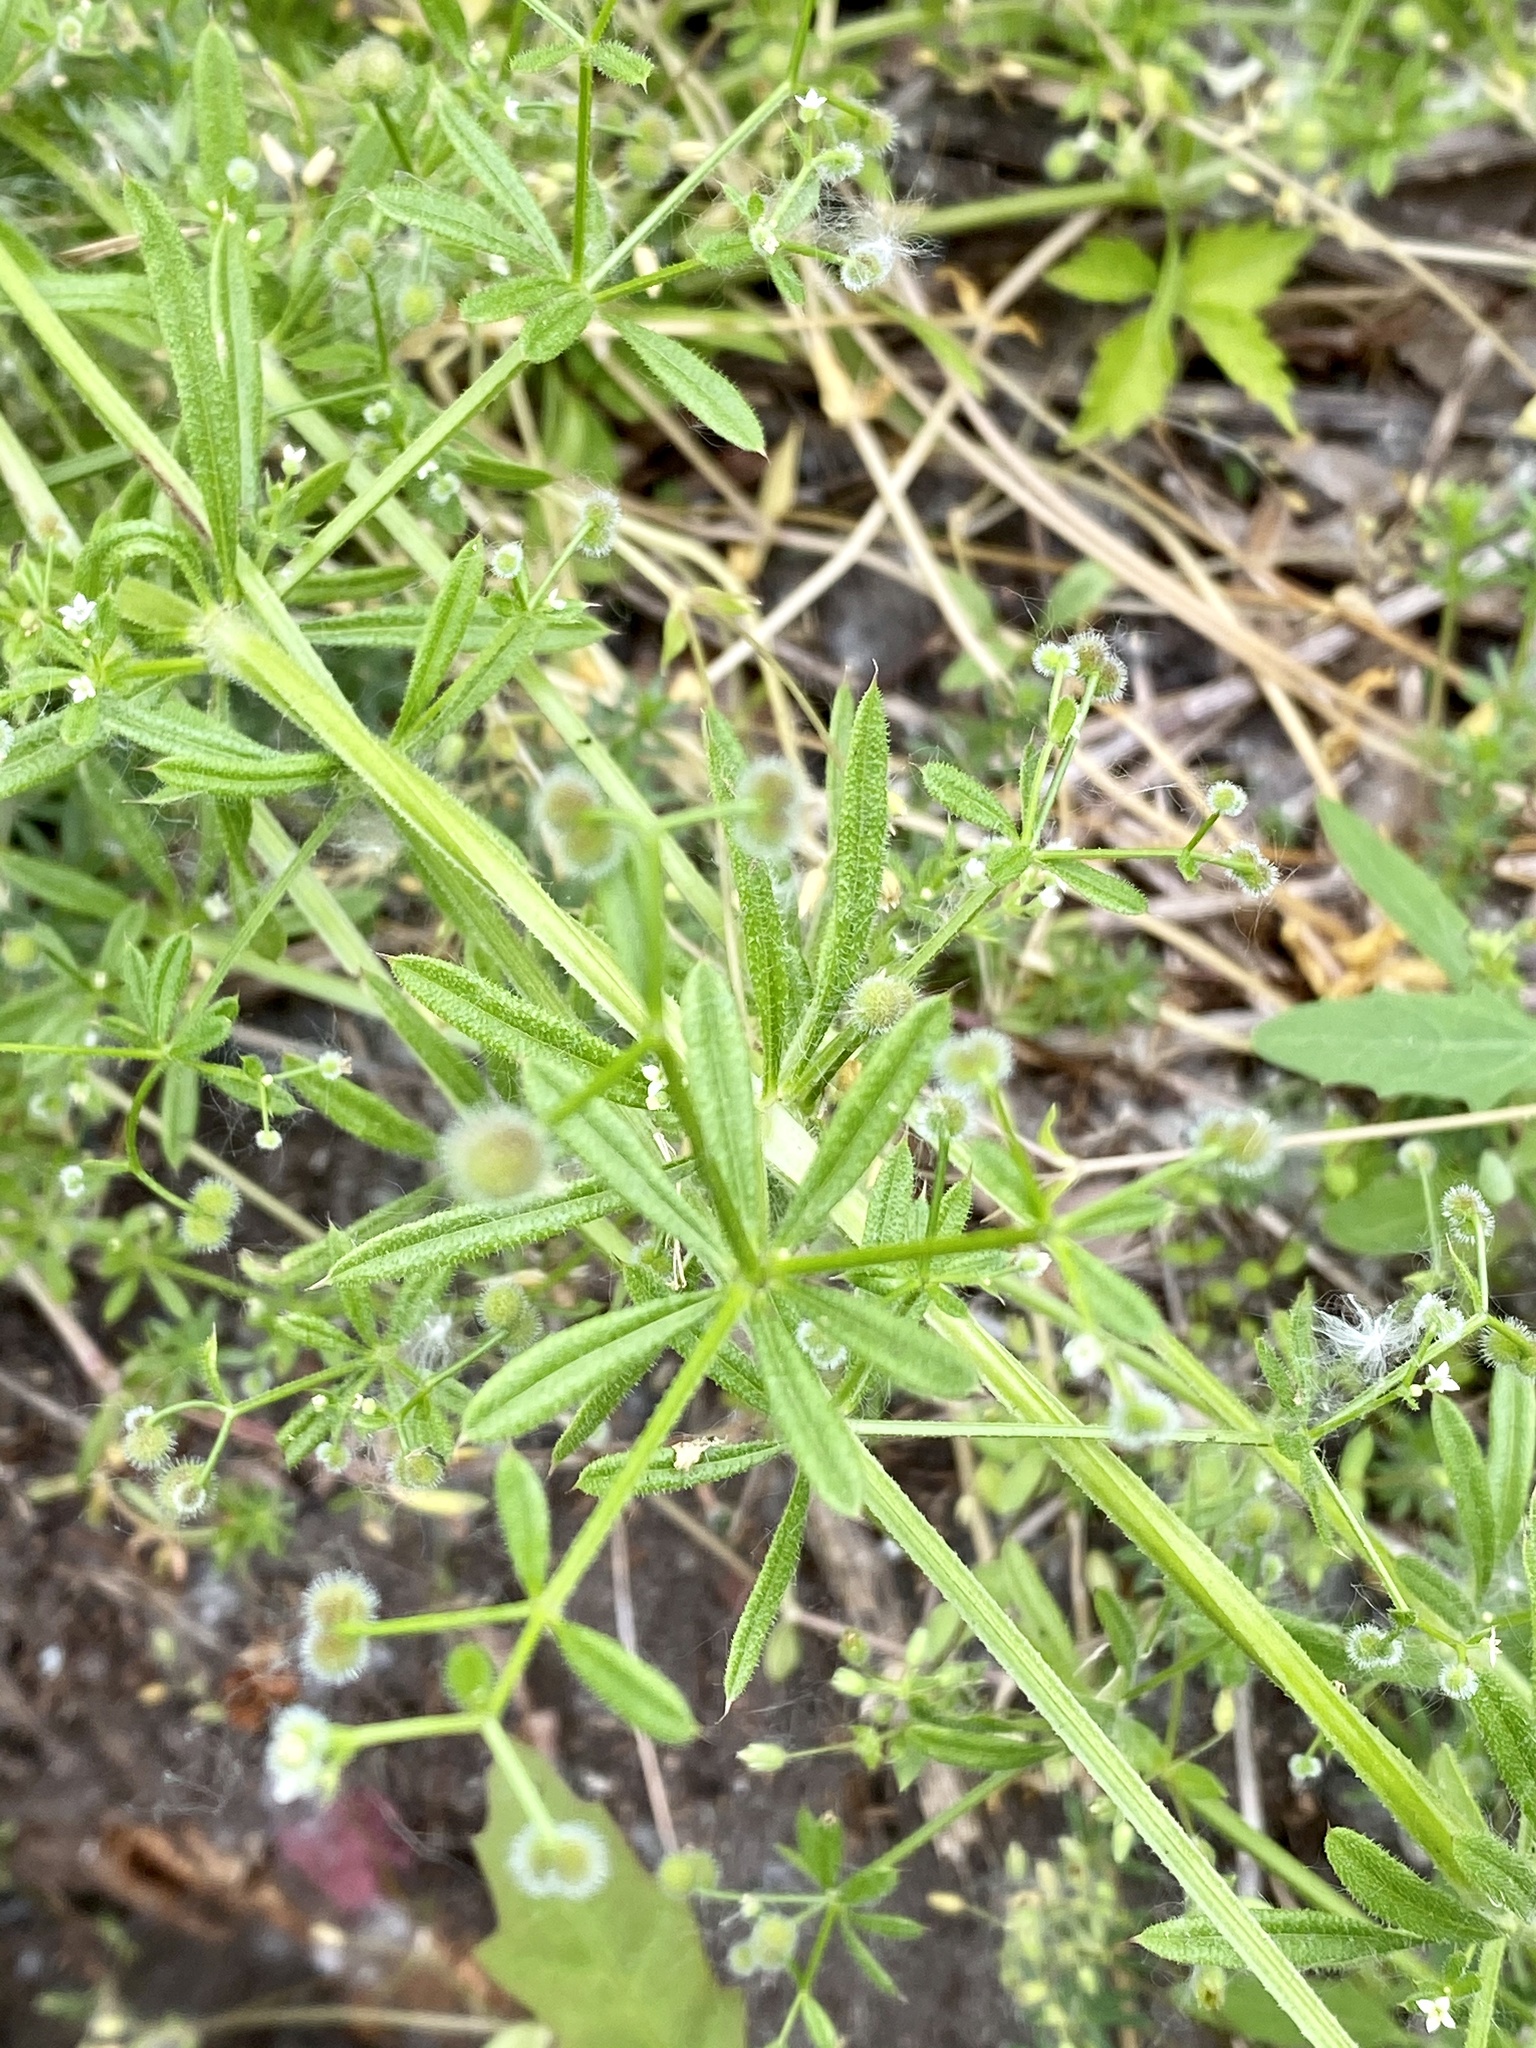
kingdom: Plantae
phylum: Tracheophyta
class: Magnoliopsida
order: Gentianales
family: Rubiaceae
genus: Galium
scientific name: Galium aparine
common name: Cleavers
